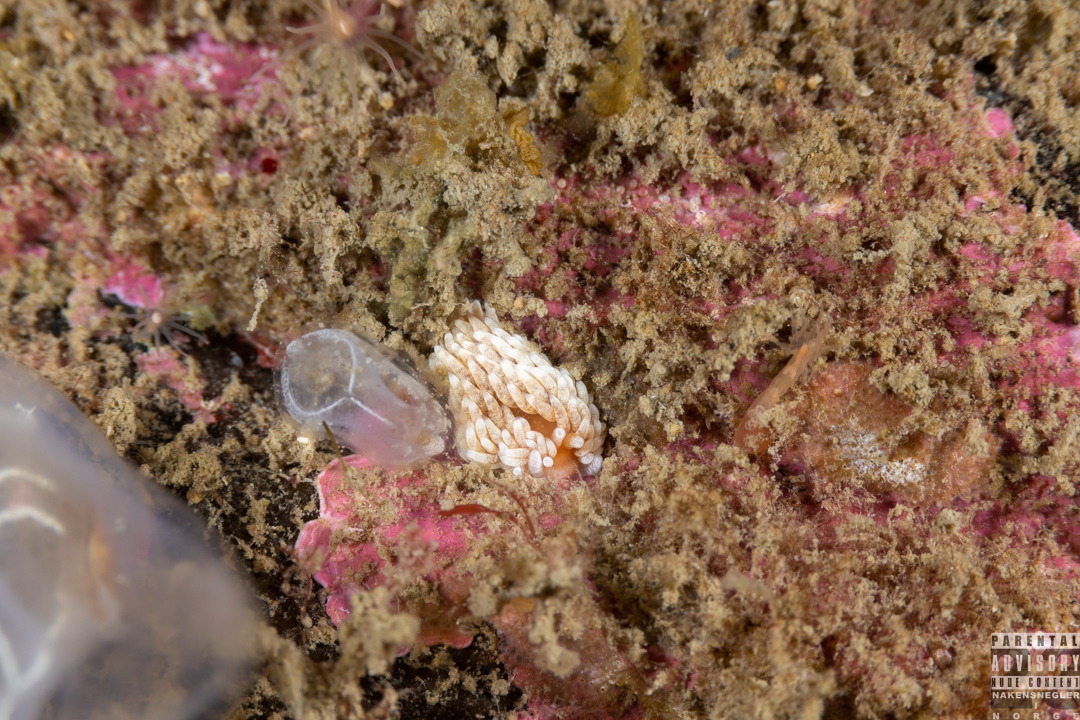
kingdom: Animalia
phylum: Mollusca
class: Gastropoda
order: Nudibranchia
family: Aeolidiidae
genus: Aeolidiella
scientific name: Aeolidiella glauca
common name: Orange-brown aeolid
